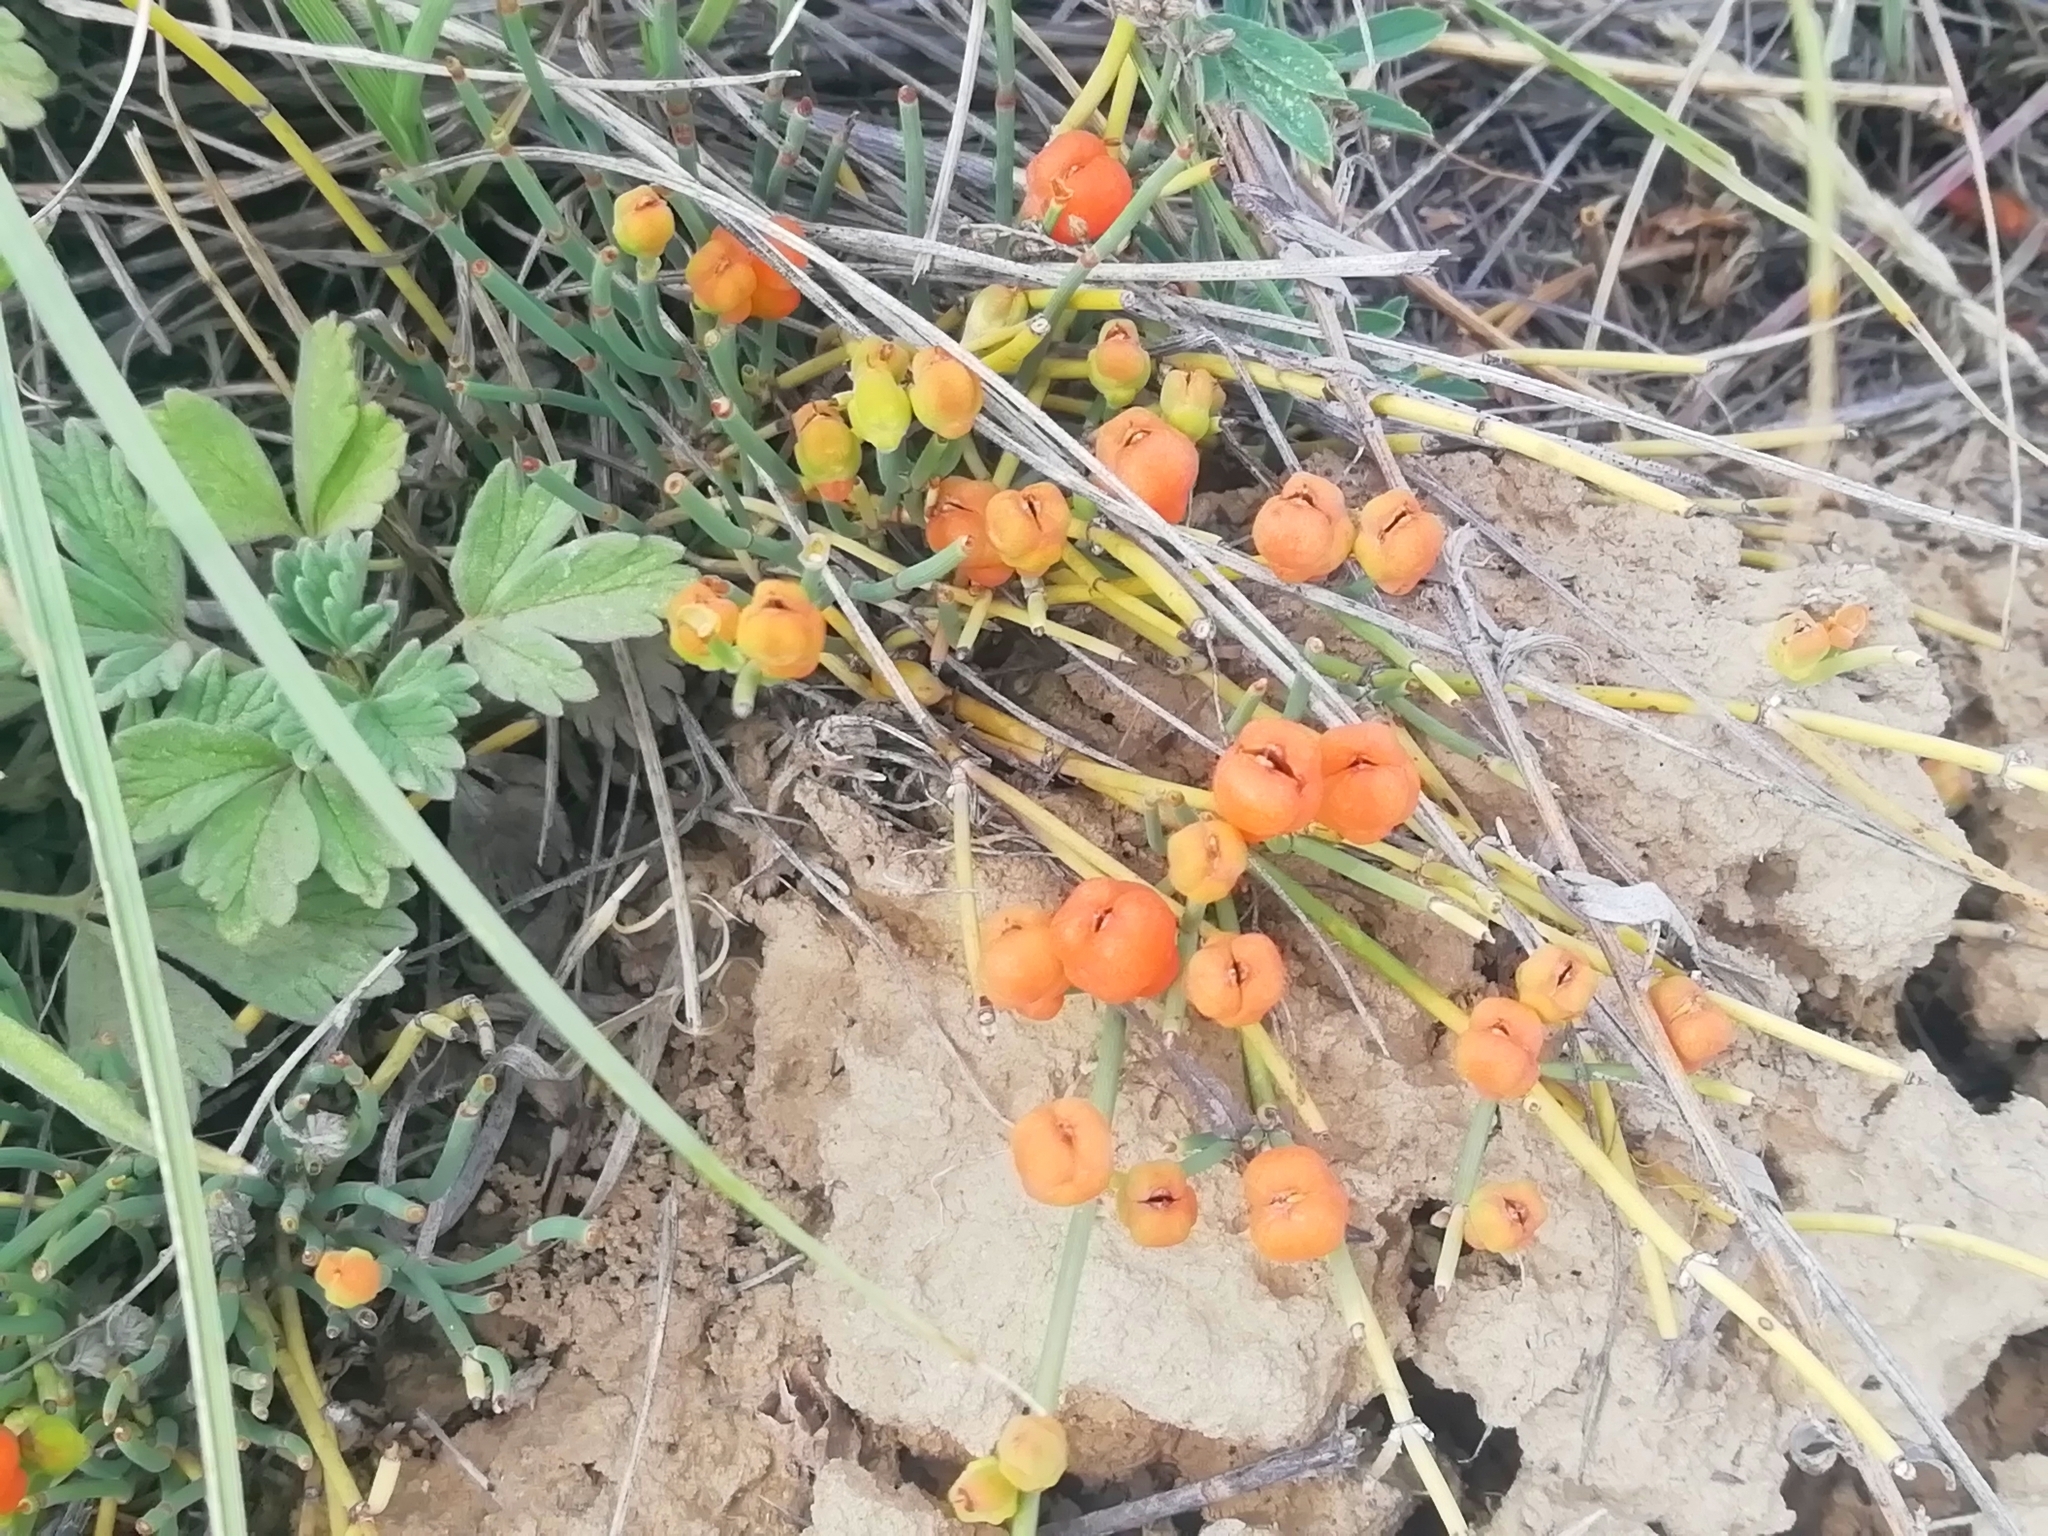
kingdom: Plantae
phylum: Tracheophyta
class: Gnetopsida
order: Ephedrales
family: Ephedraceae
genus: Ephedra
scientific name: Ephedra distachya
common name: Sea grape
